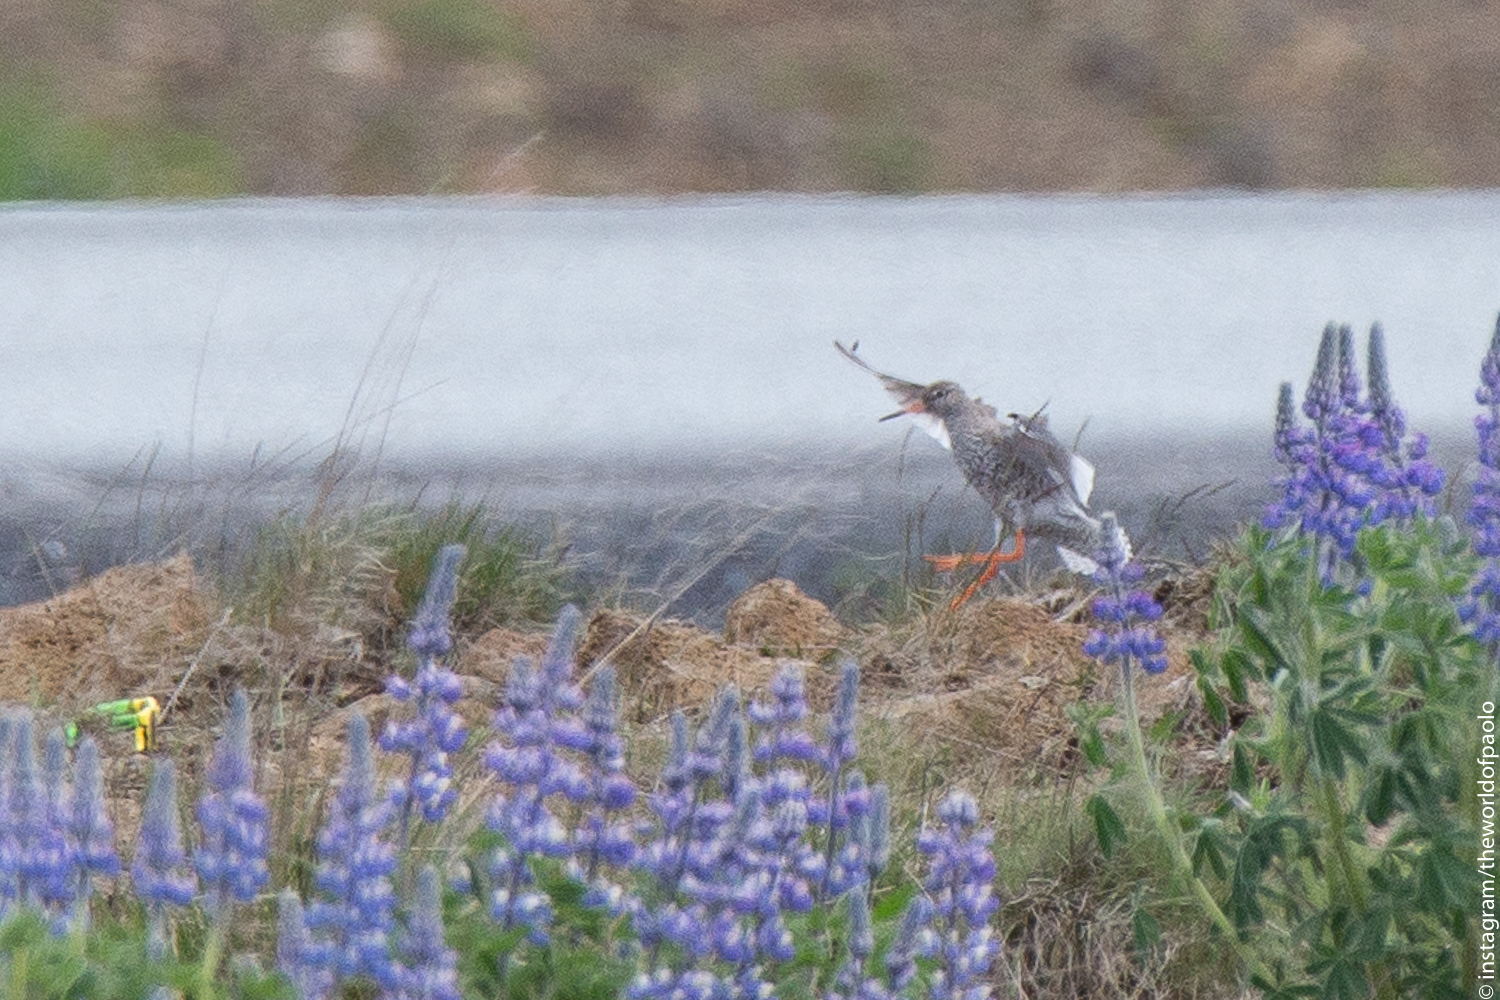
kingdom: Animalia
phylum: Chordata
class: Aves
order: Charadriiformes
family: Scolopacidae
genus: Tringa
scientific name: Tringa totanus
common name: Common redshank
